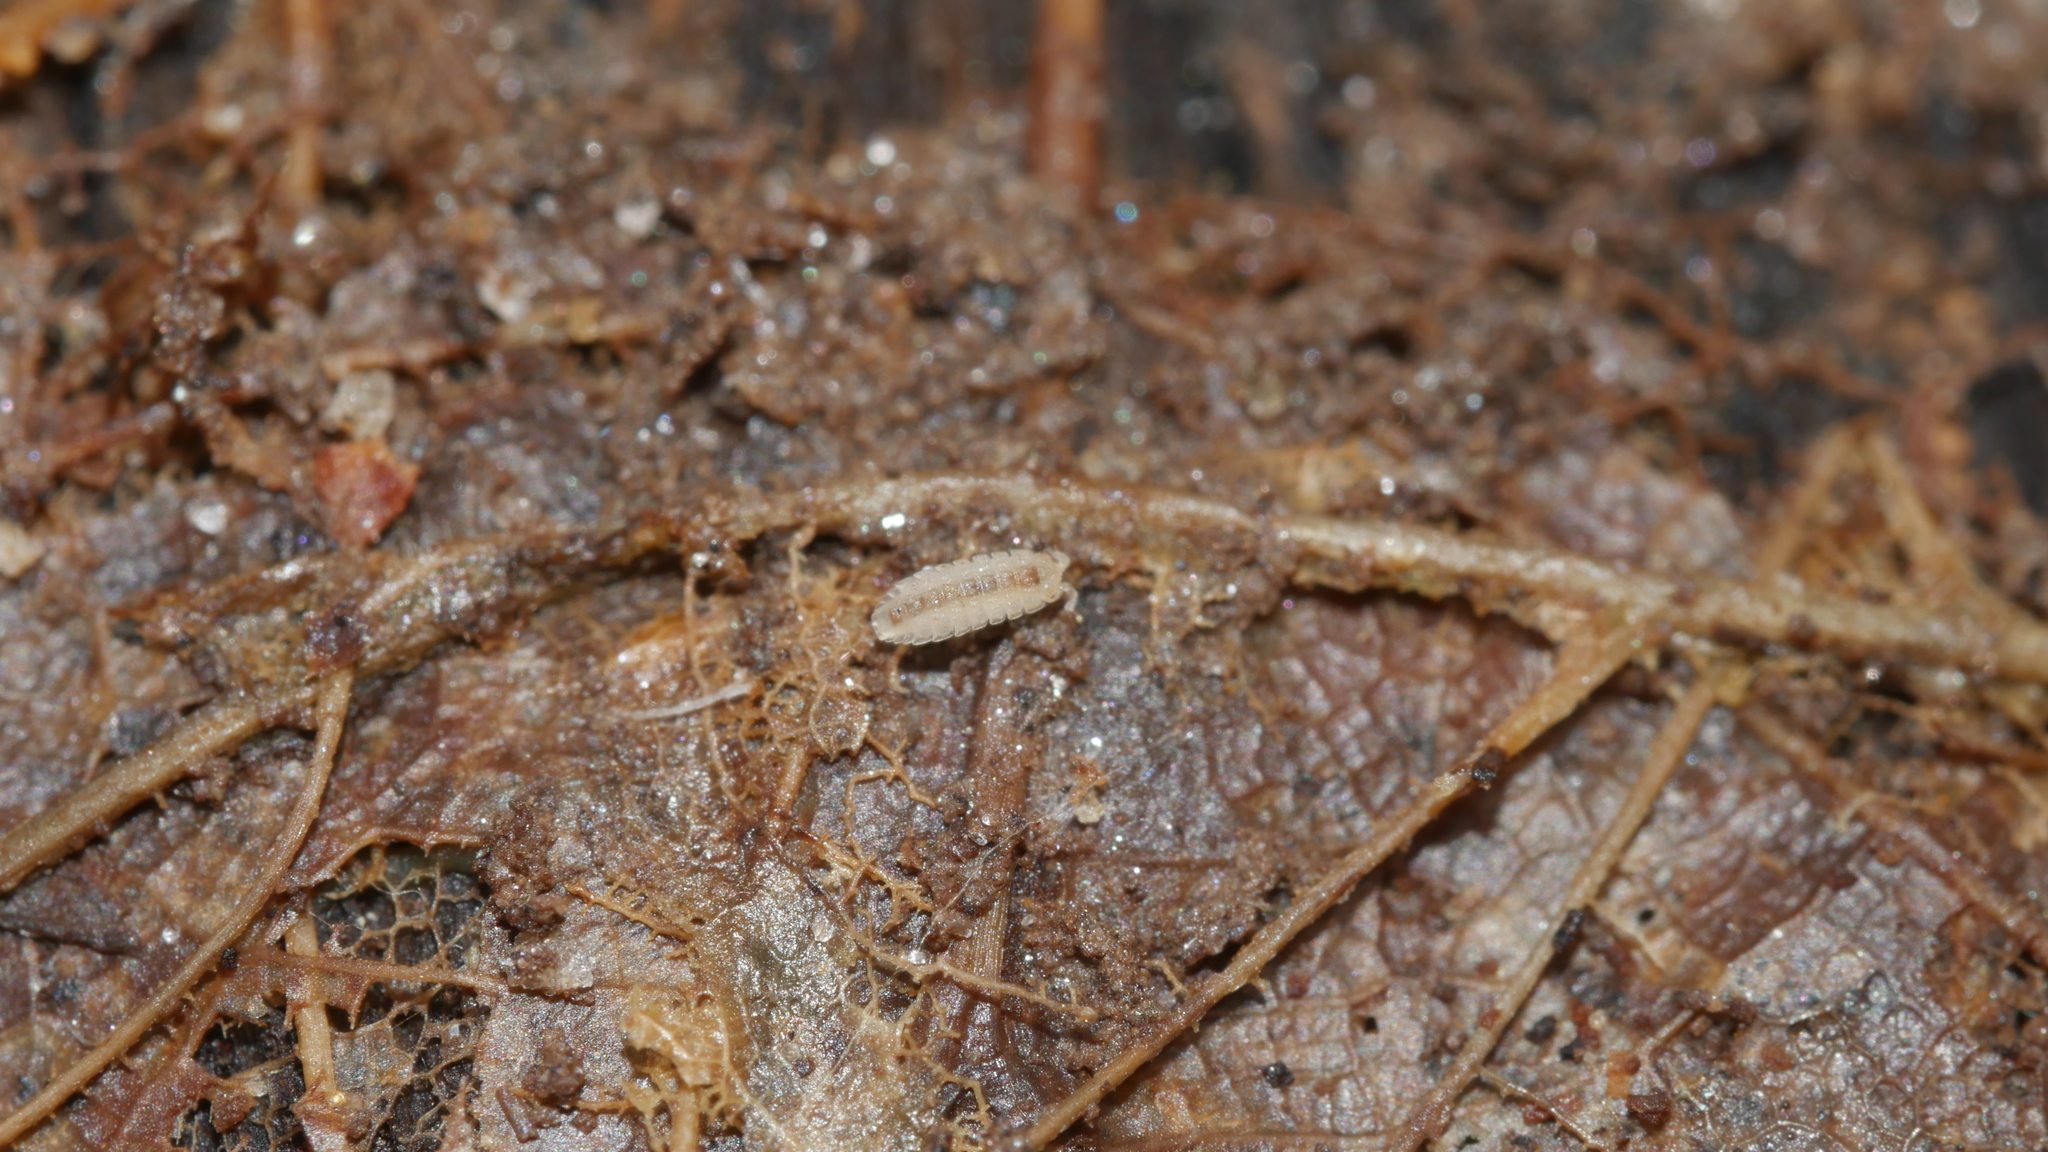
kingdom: Animalia
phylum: Arthropoda
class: Malacostraca
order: Isopoda
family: Trichoniscidae
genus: Haplophthalmus
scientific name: Haplophthalmus danicus
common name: Pillbug
